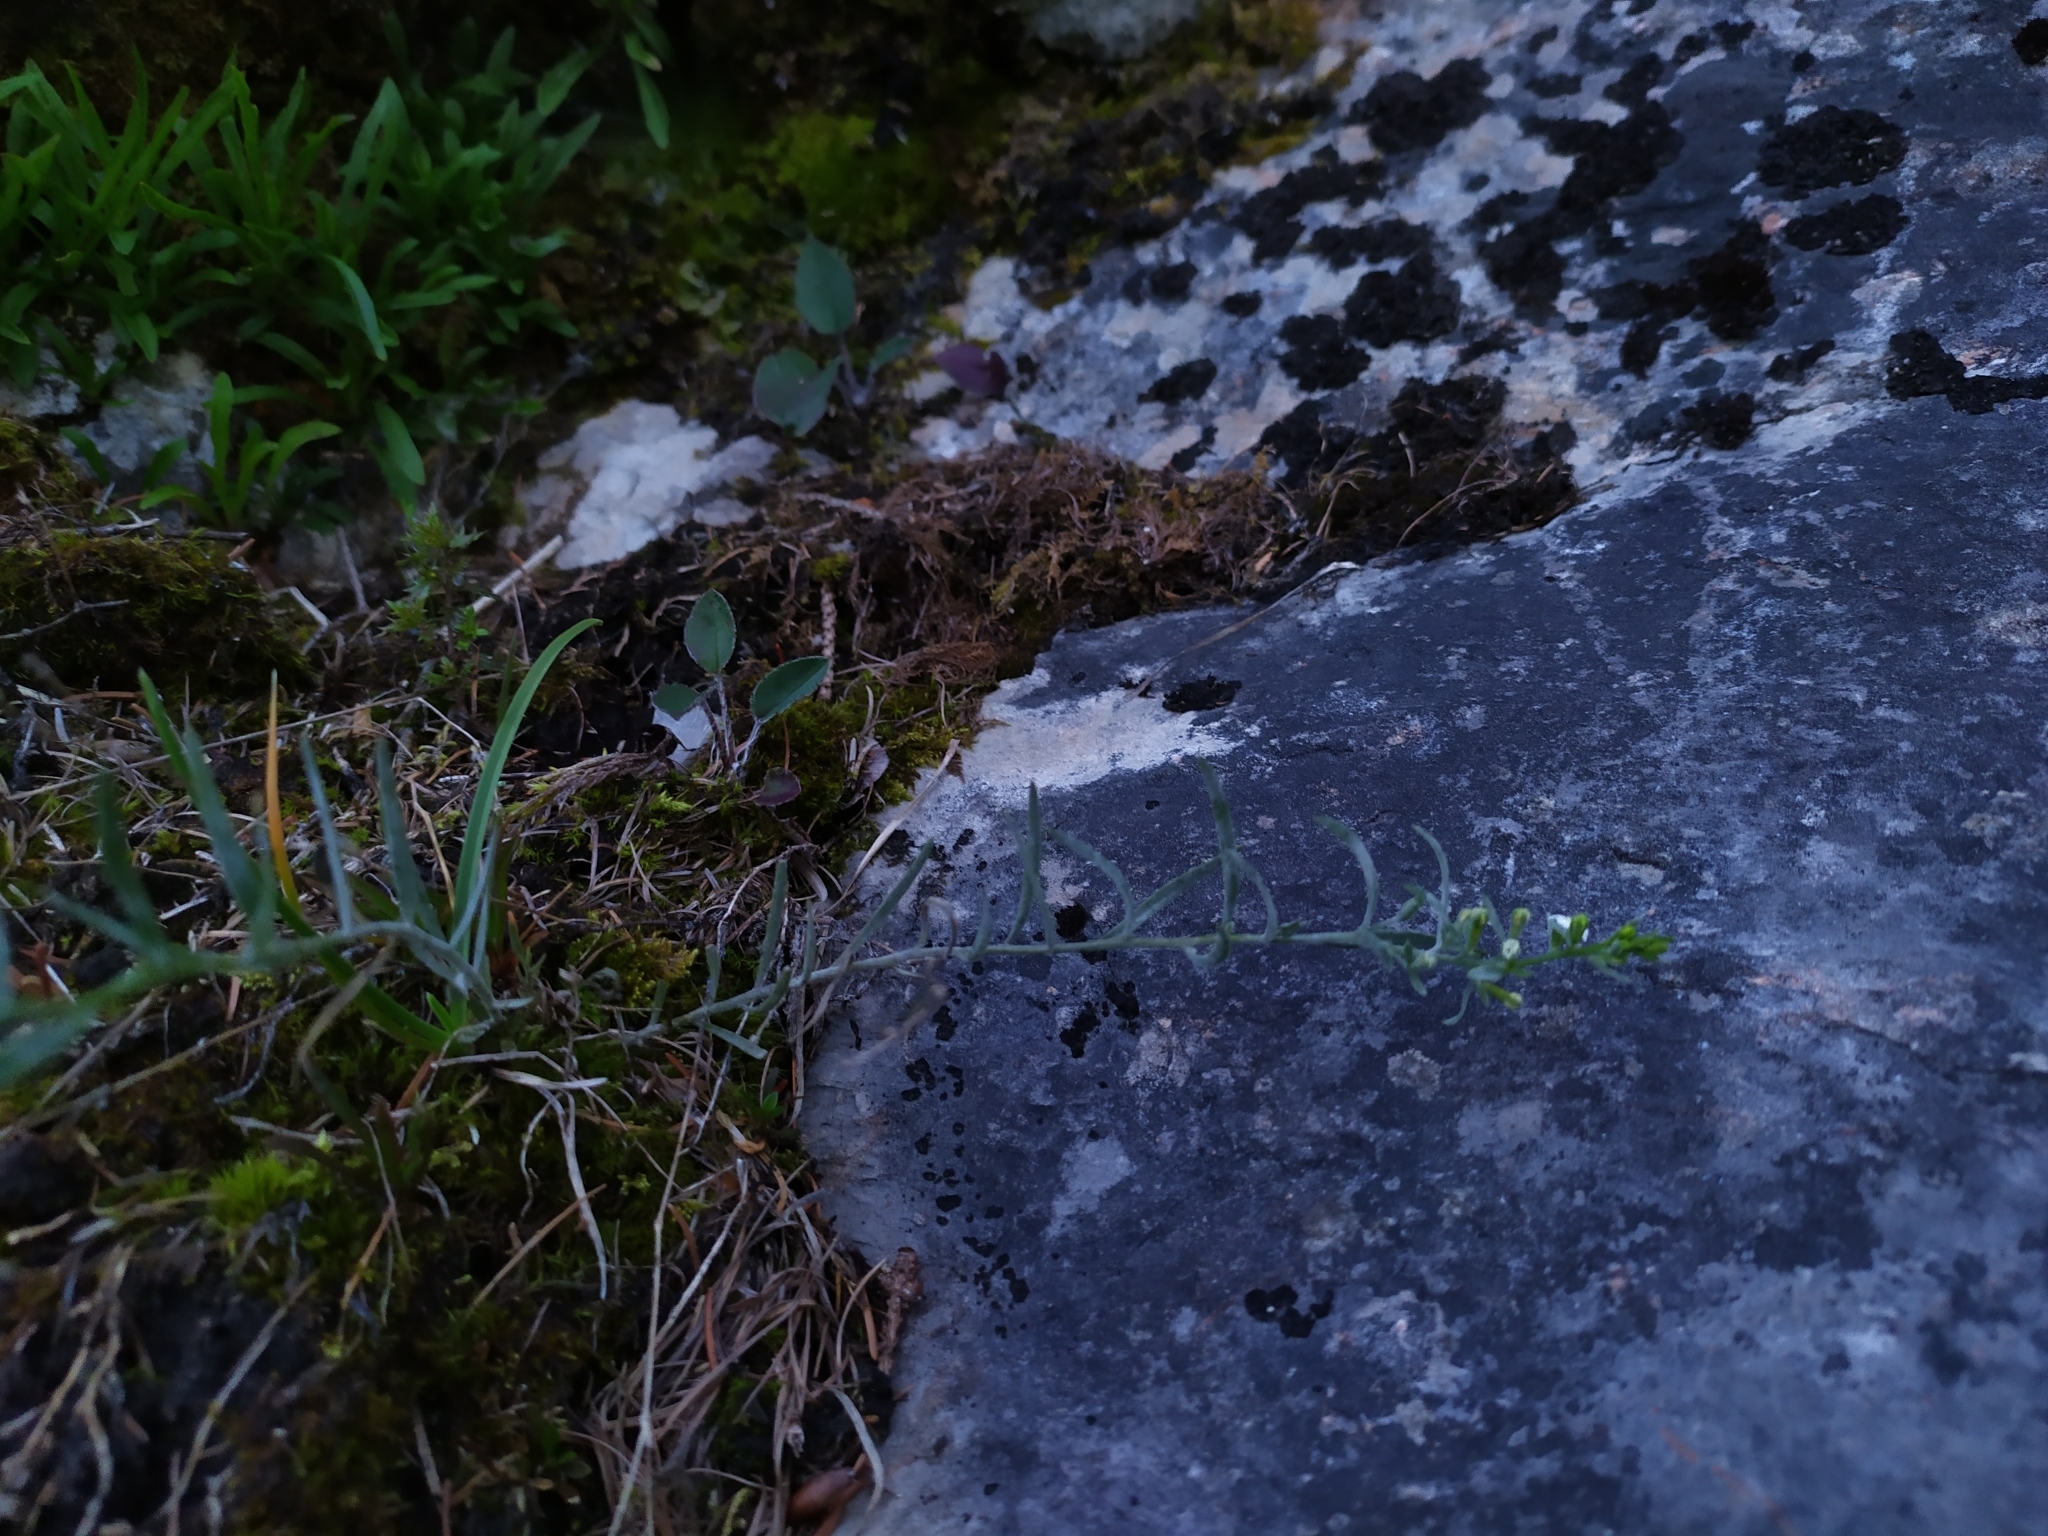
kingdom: Plantae
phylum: Tracheophyta
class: Magnoliopsida
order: Santalales
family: Thesiaceae
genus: Thesium
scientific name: Thesium alpinum
